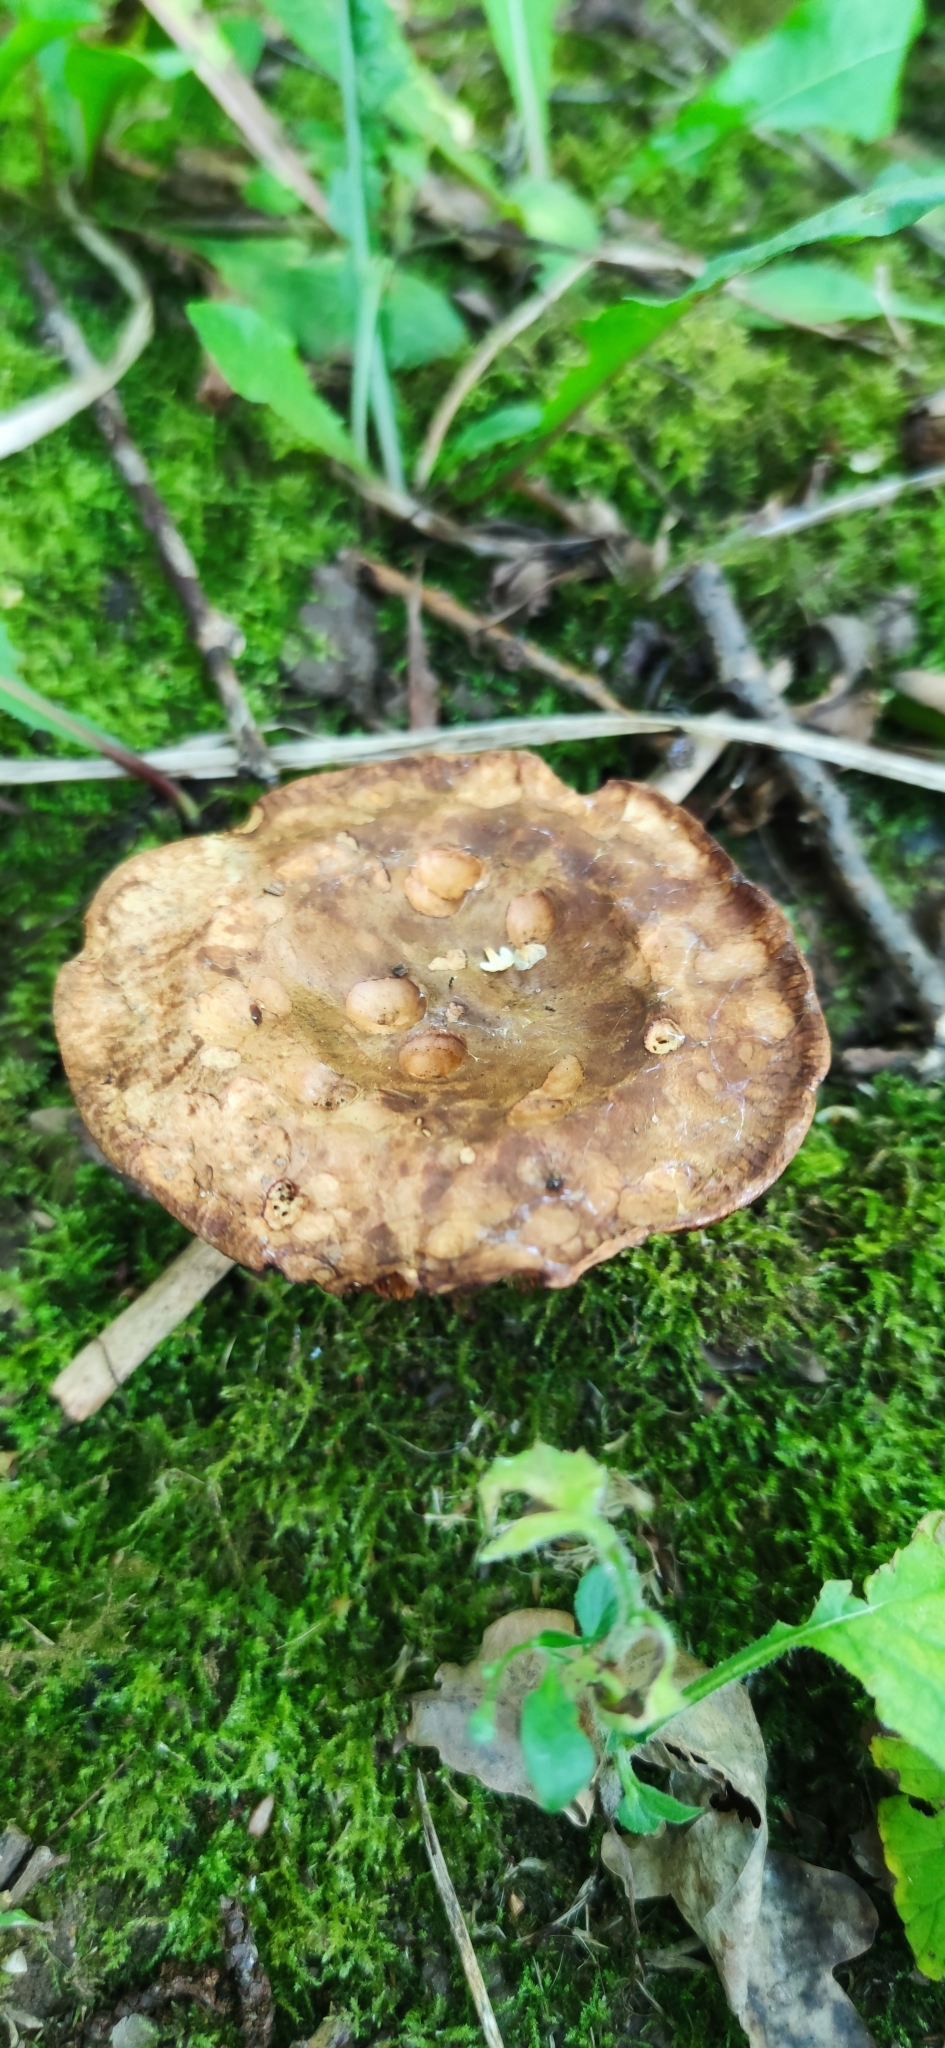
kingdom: Fungi
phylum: Basidiomycota
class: Agaricomycetes
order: Boletales
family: Paxillaceae
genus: Paxillus
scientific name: Paxillus involutus
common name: Brown roll rim
